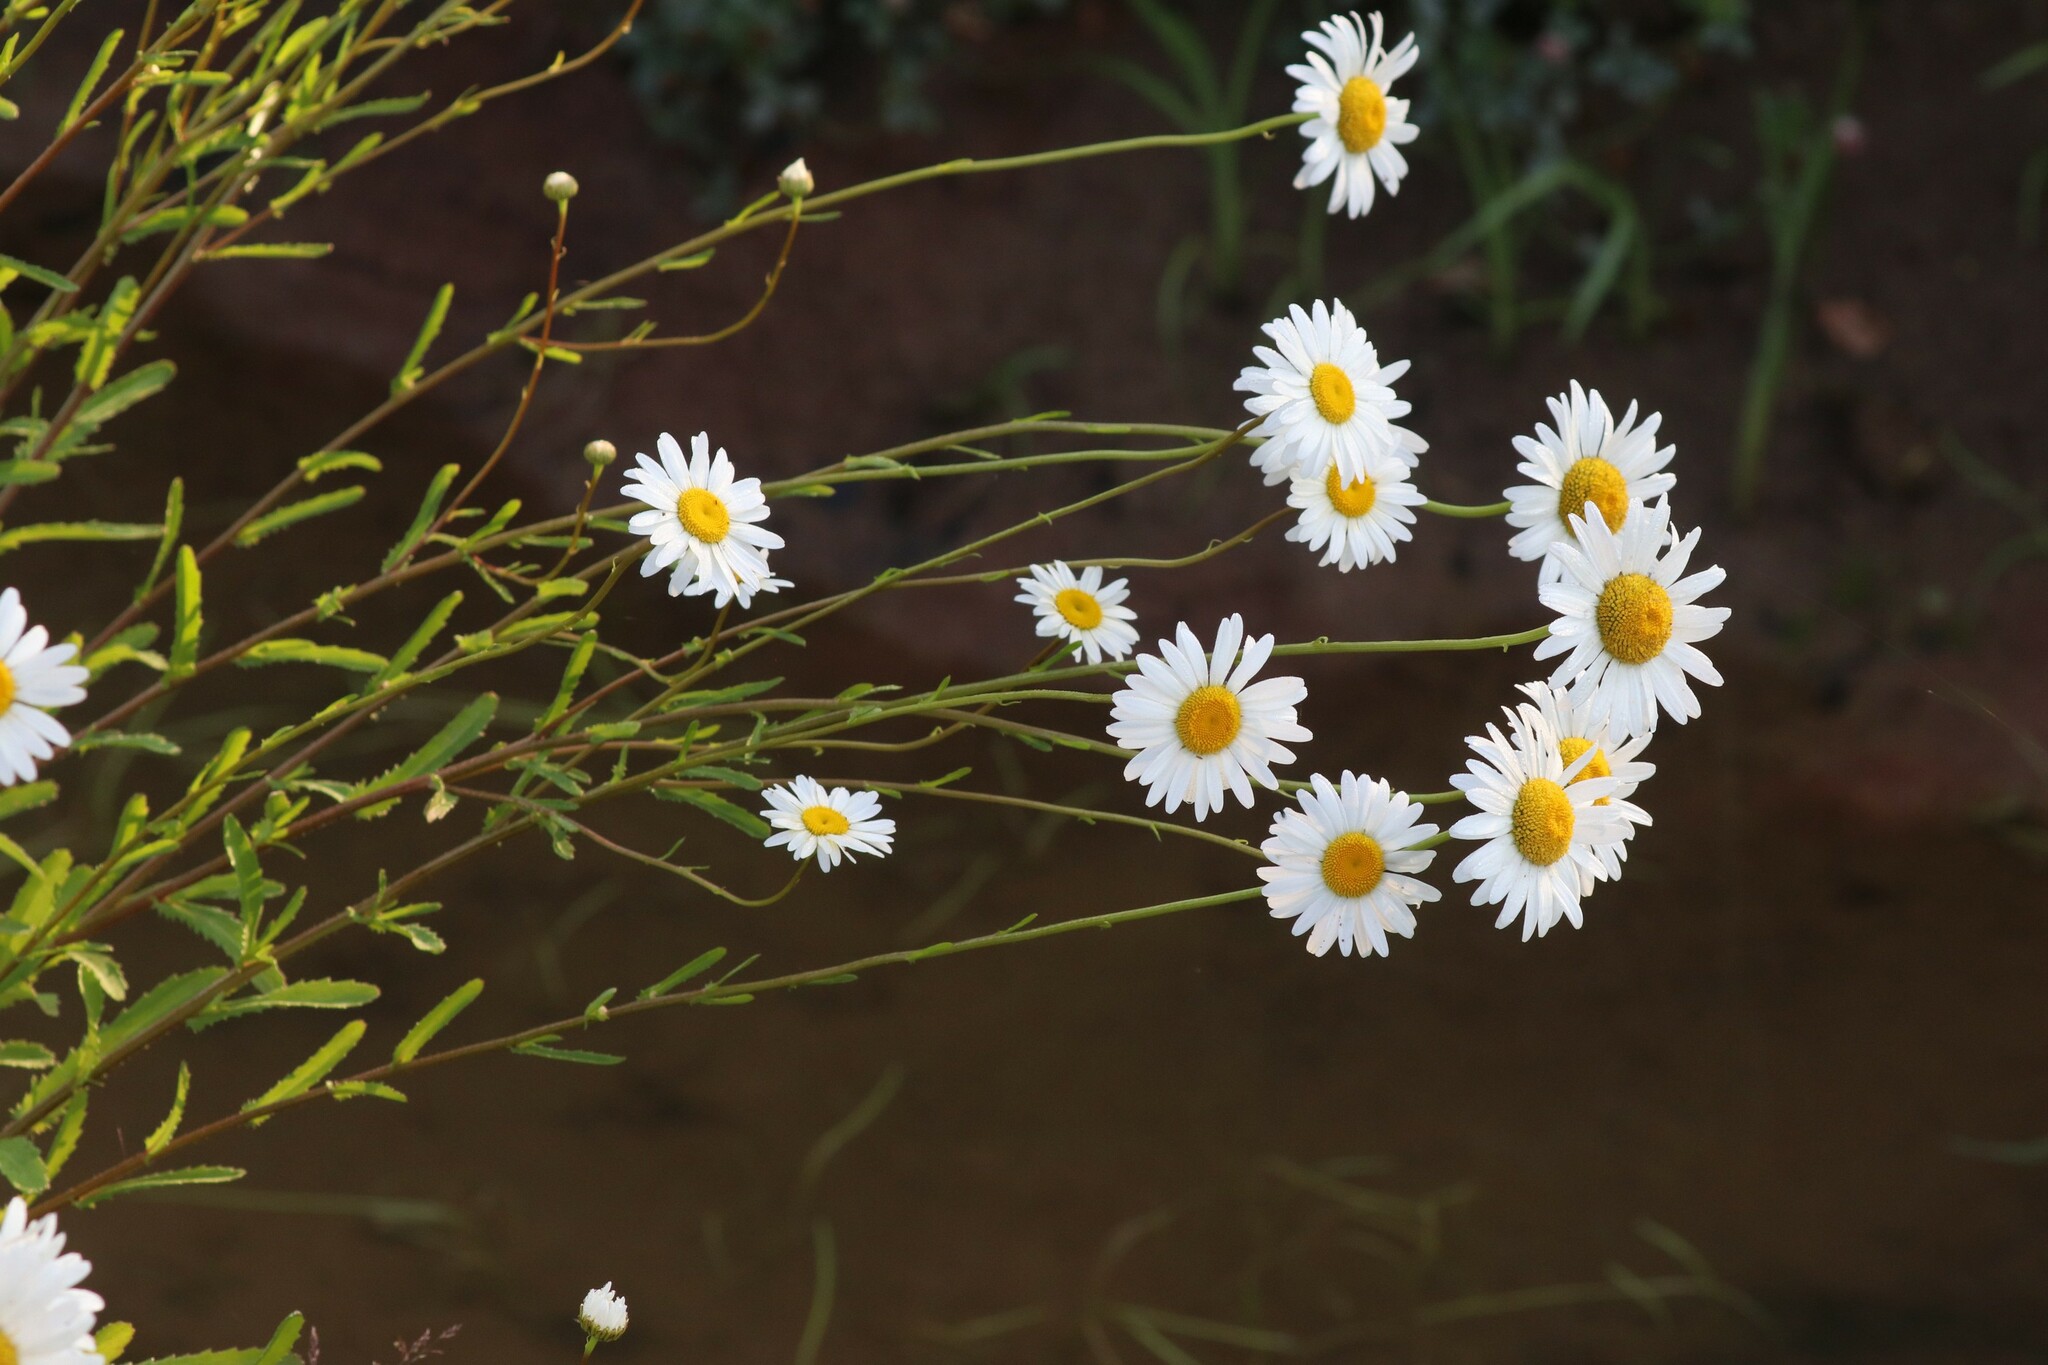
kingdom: Plantae
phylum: Tracheophyta
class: Magnoliopsida
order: Asterales
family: Asteraceae
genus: Leucanthemum
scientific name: Leucanthemum vulgare
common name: Oxeye daisy
